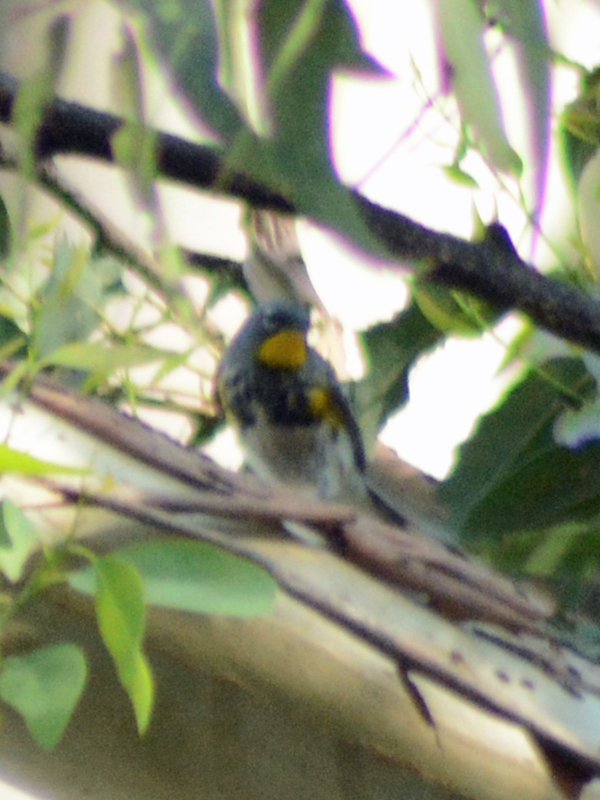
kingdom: Animalia
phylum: Chordata
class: Aves
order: Passeriformes
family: Parulidae
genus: Setophaga
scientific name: Setophaga auduboni
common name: Audubon's warbler
